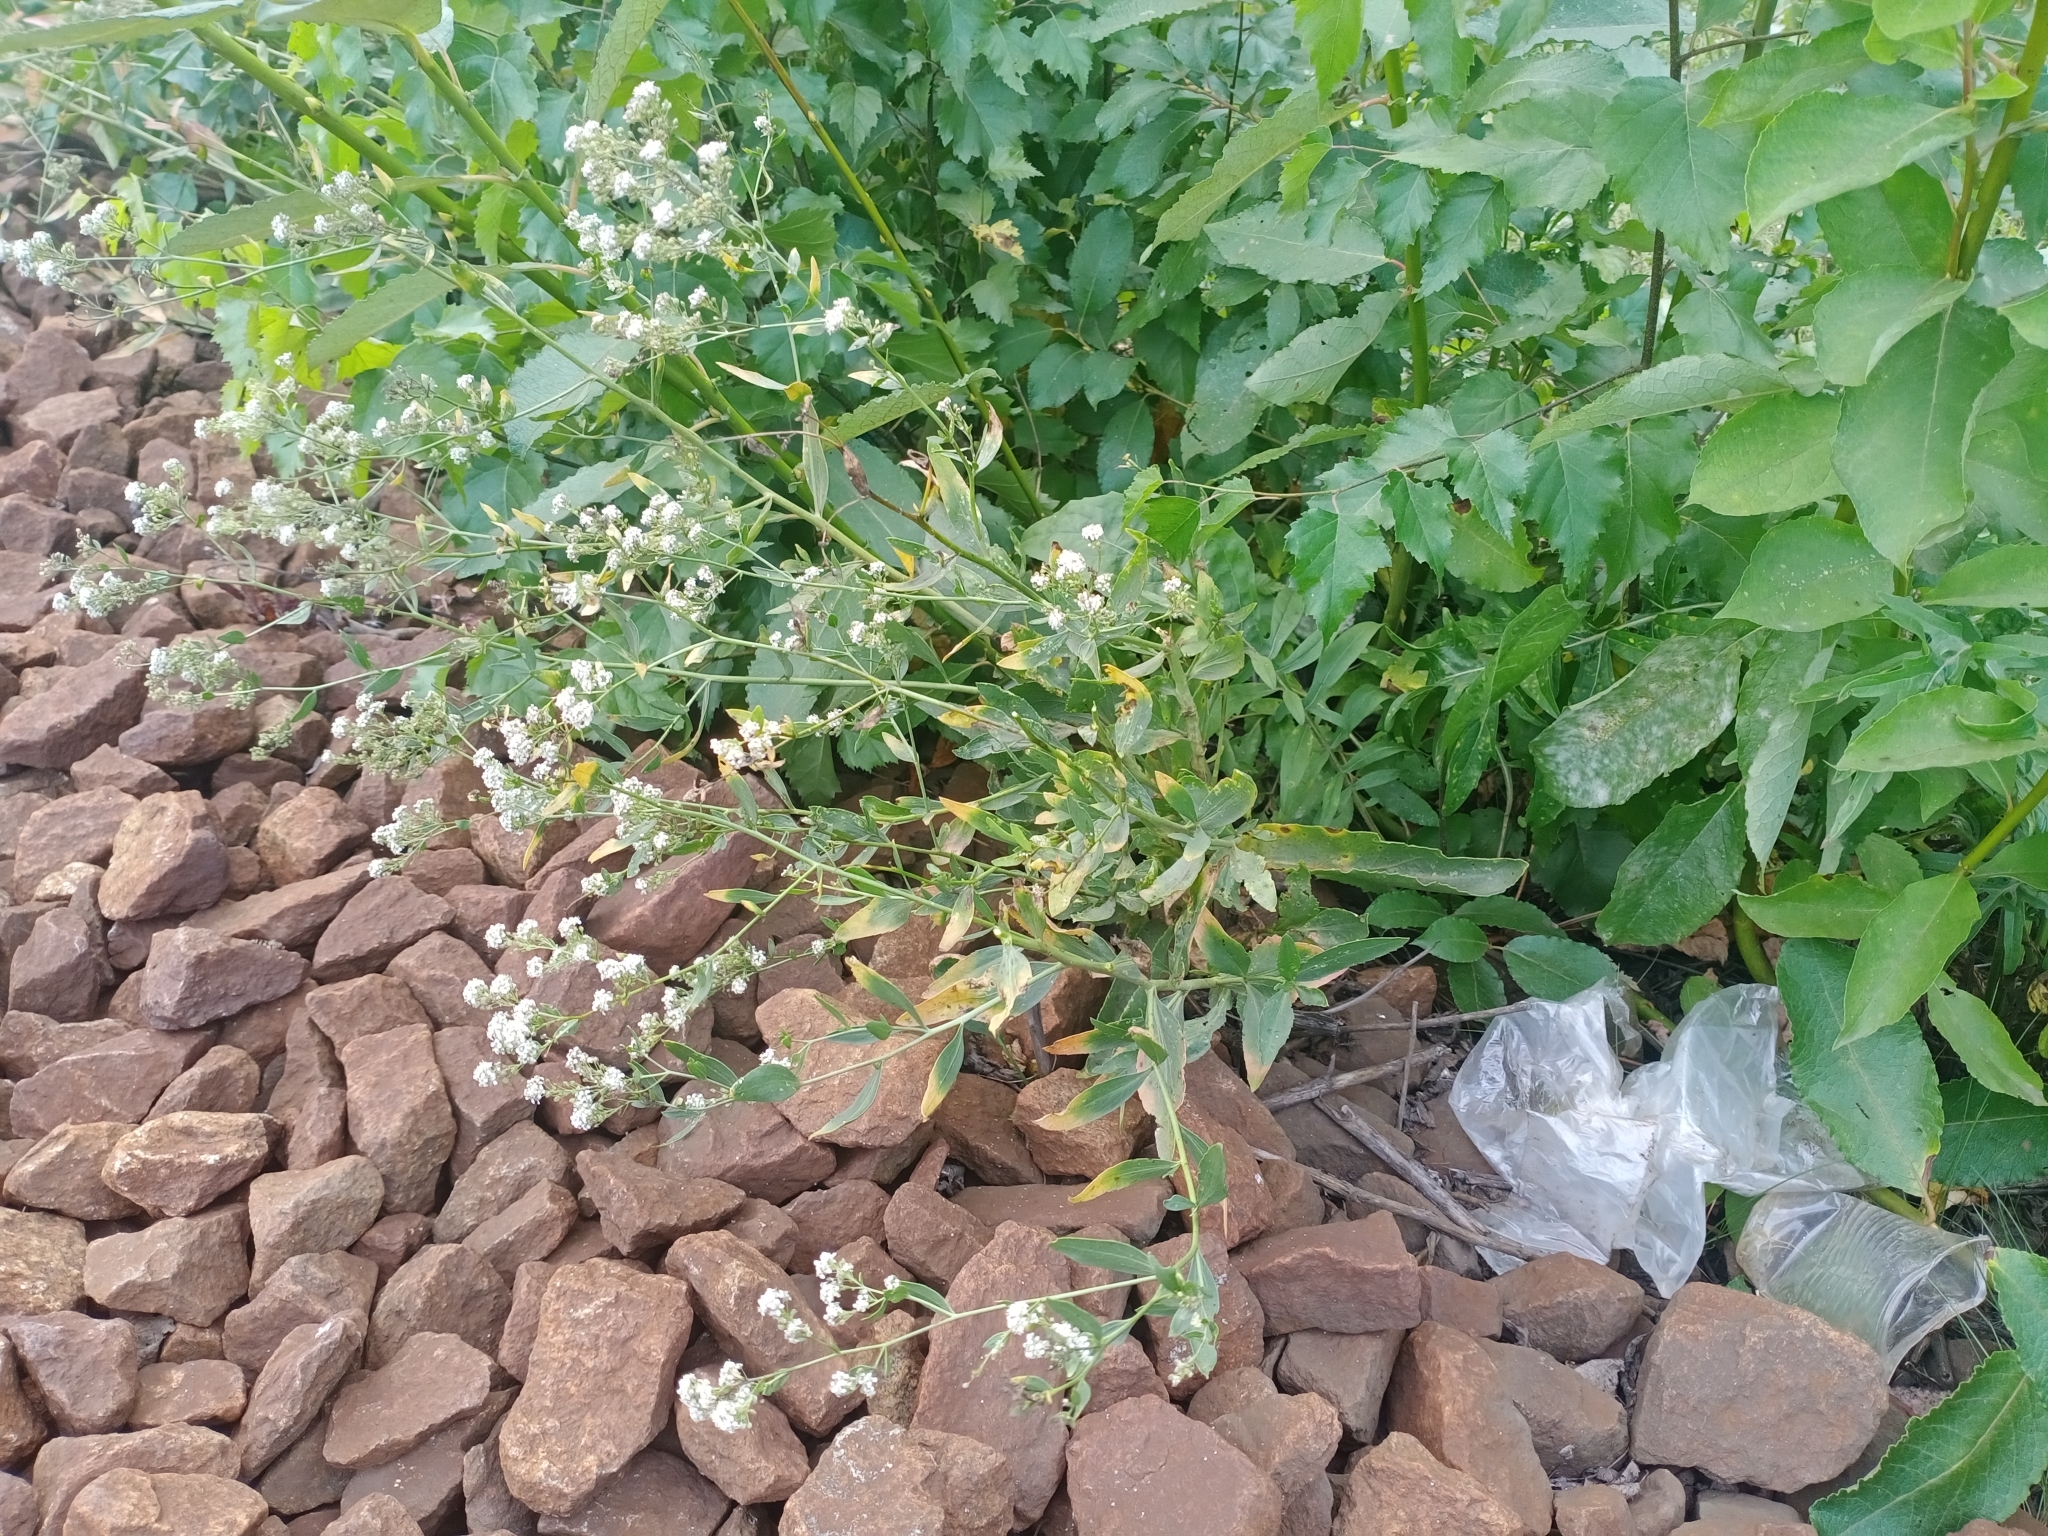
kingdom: Plantae
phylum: Tracheophyta
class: Magnoliopsida
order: Brassicales
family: Brassicaceae
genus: Lepidium
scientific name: Lepidium latifolium
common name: Dittander
